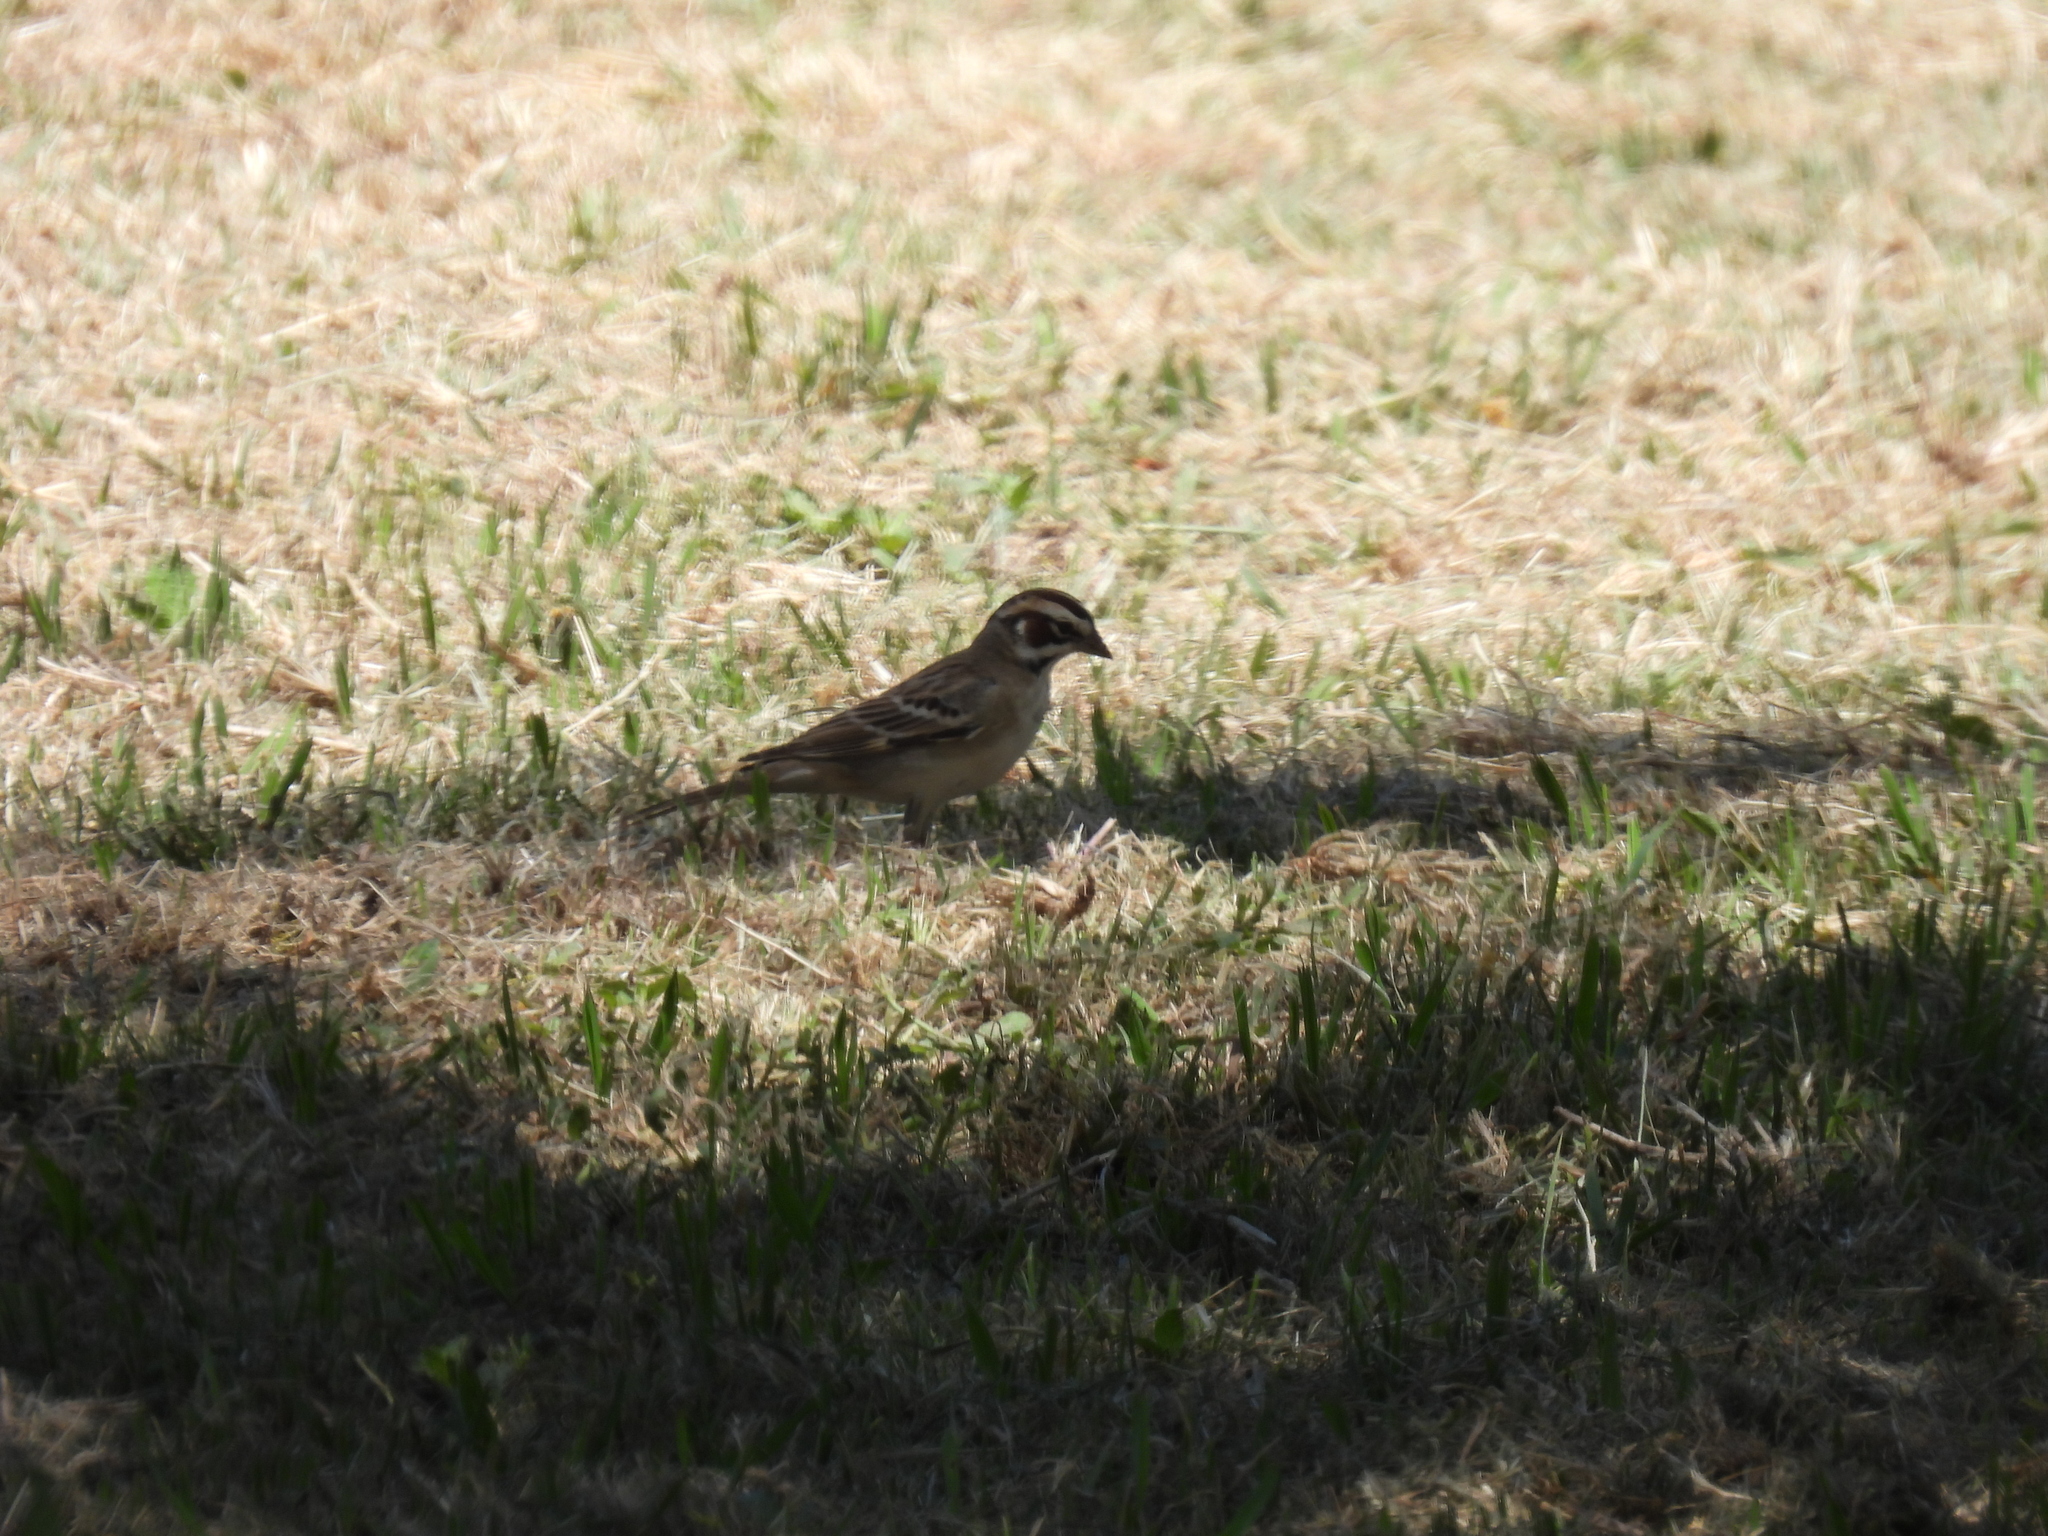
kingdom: Animalia
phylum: Chordata
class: Aves
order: Passeriformes
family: Passerellidae
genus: Chondestes
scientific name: Chondestes grammacus
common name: Lark sparrow
